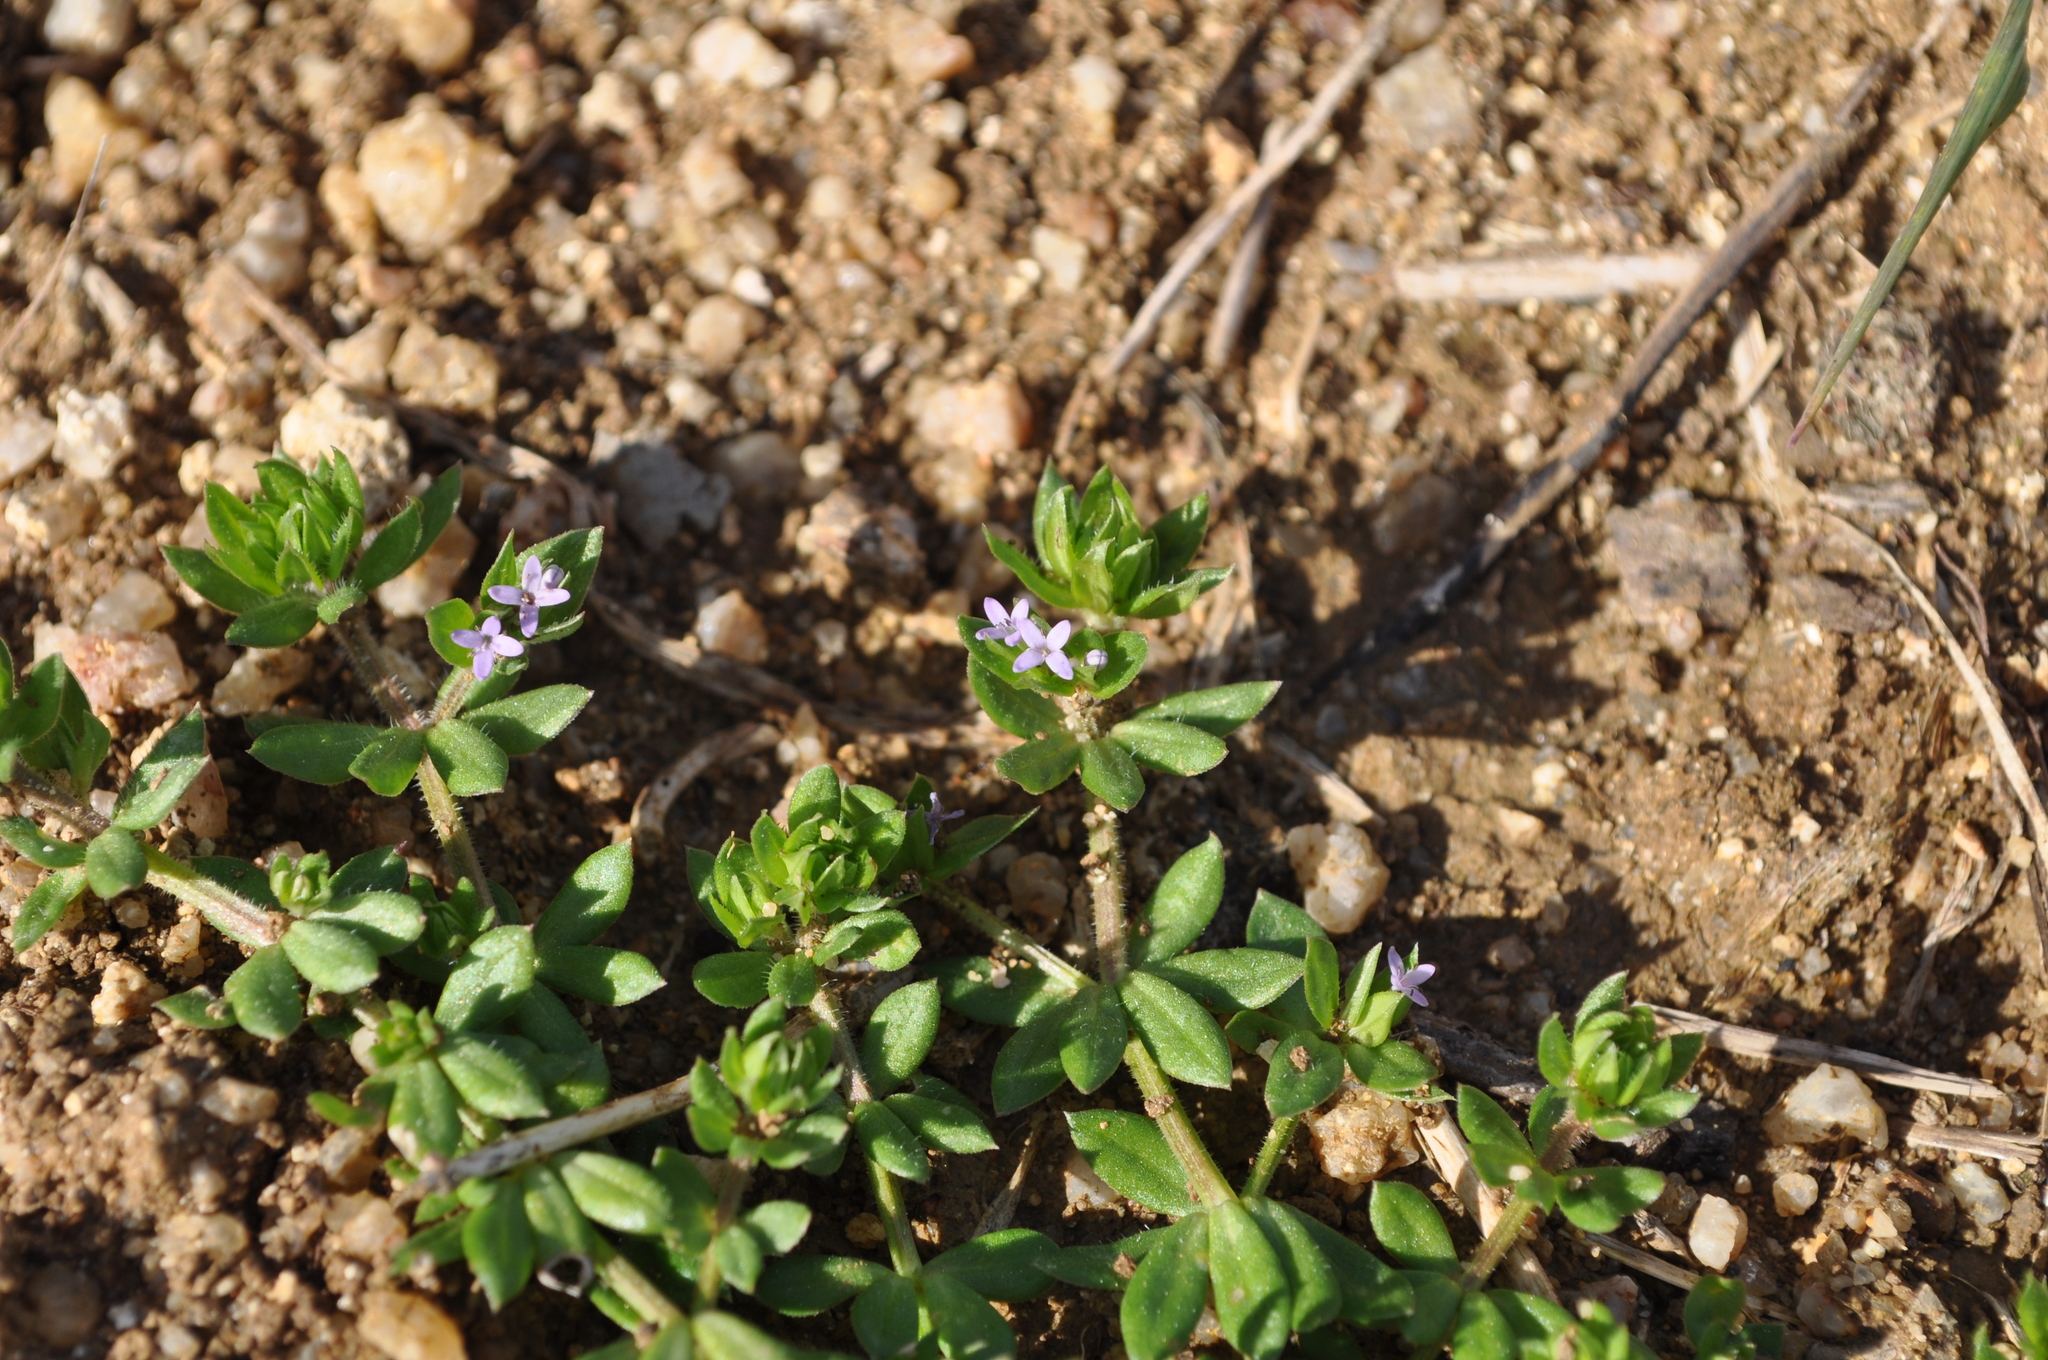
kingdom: Plantae
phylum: Tracheophyta
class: Magnoliopsida
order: Gentianales
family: Rubiaceae
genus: Sherardia
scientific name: Sherardia arvensis
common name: Field madder
